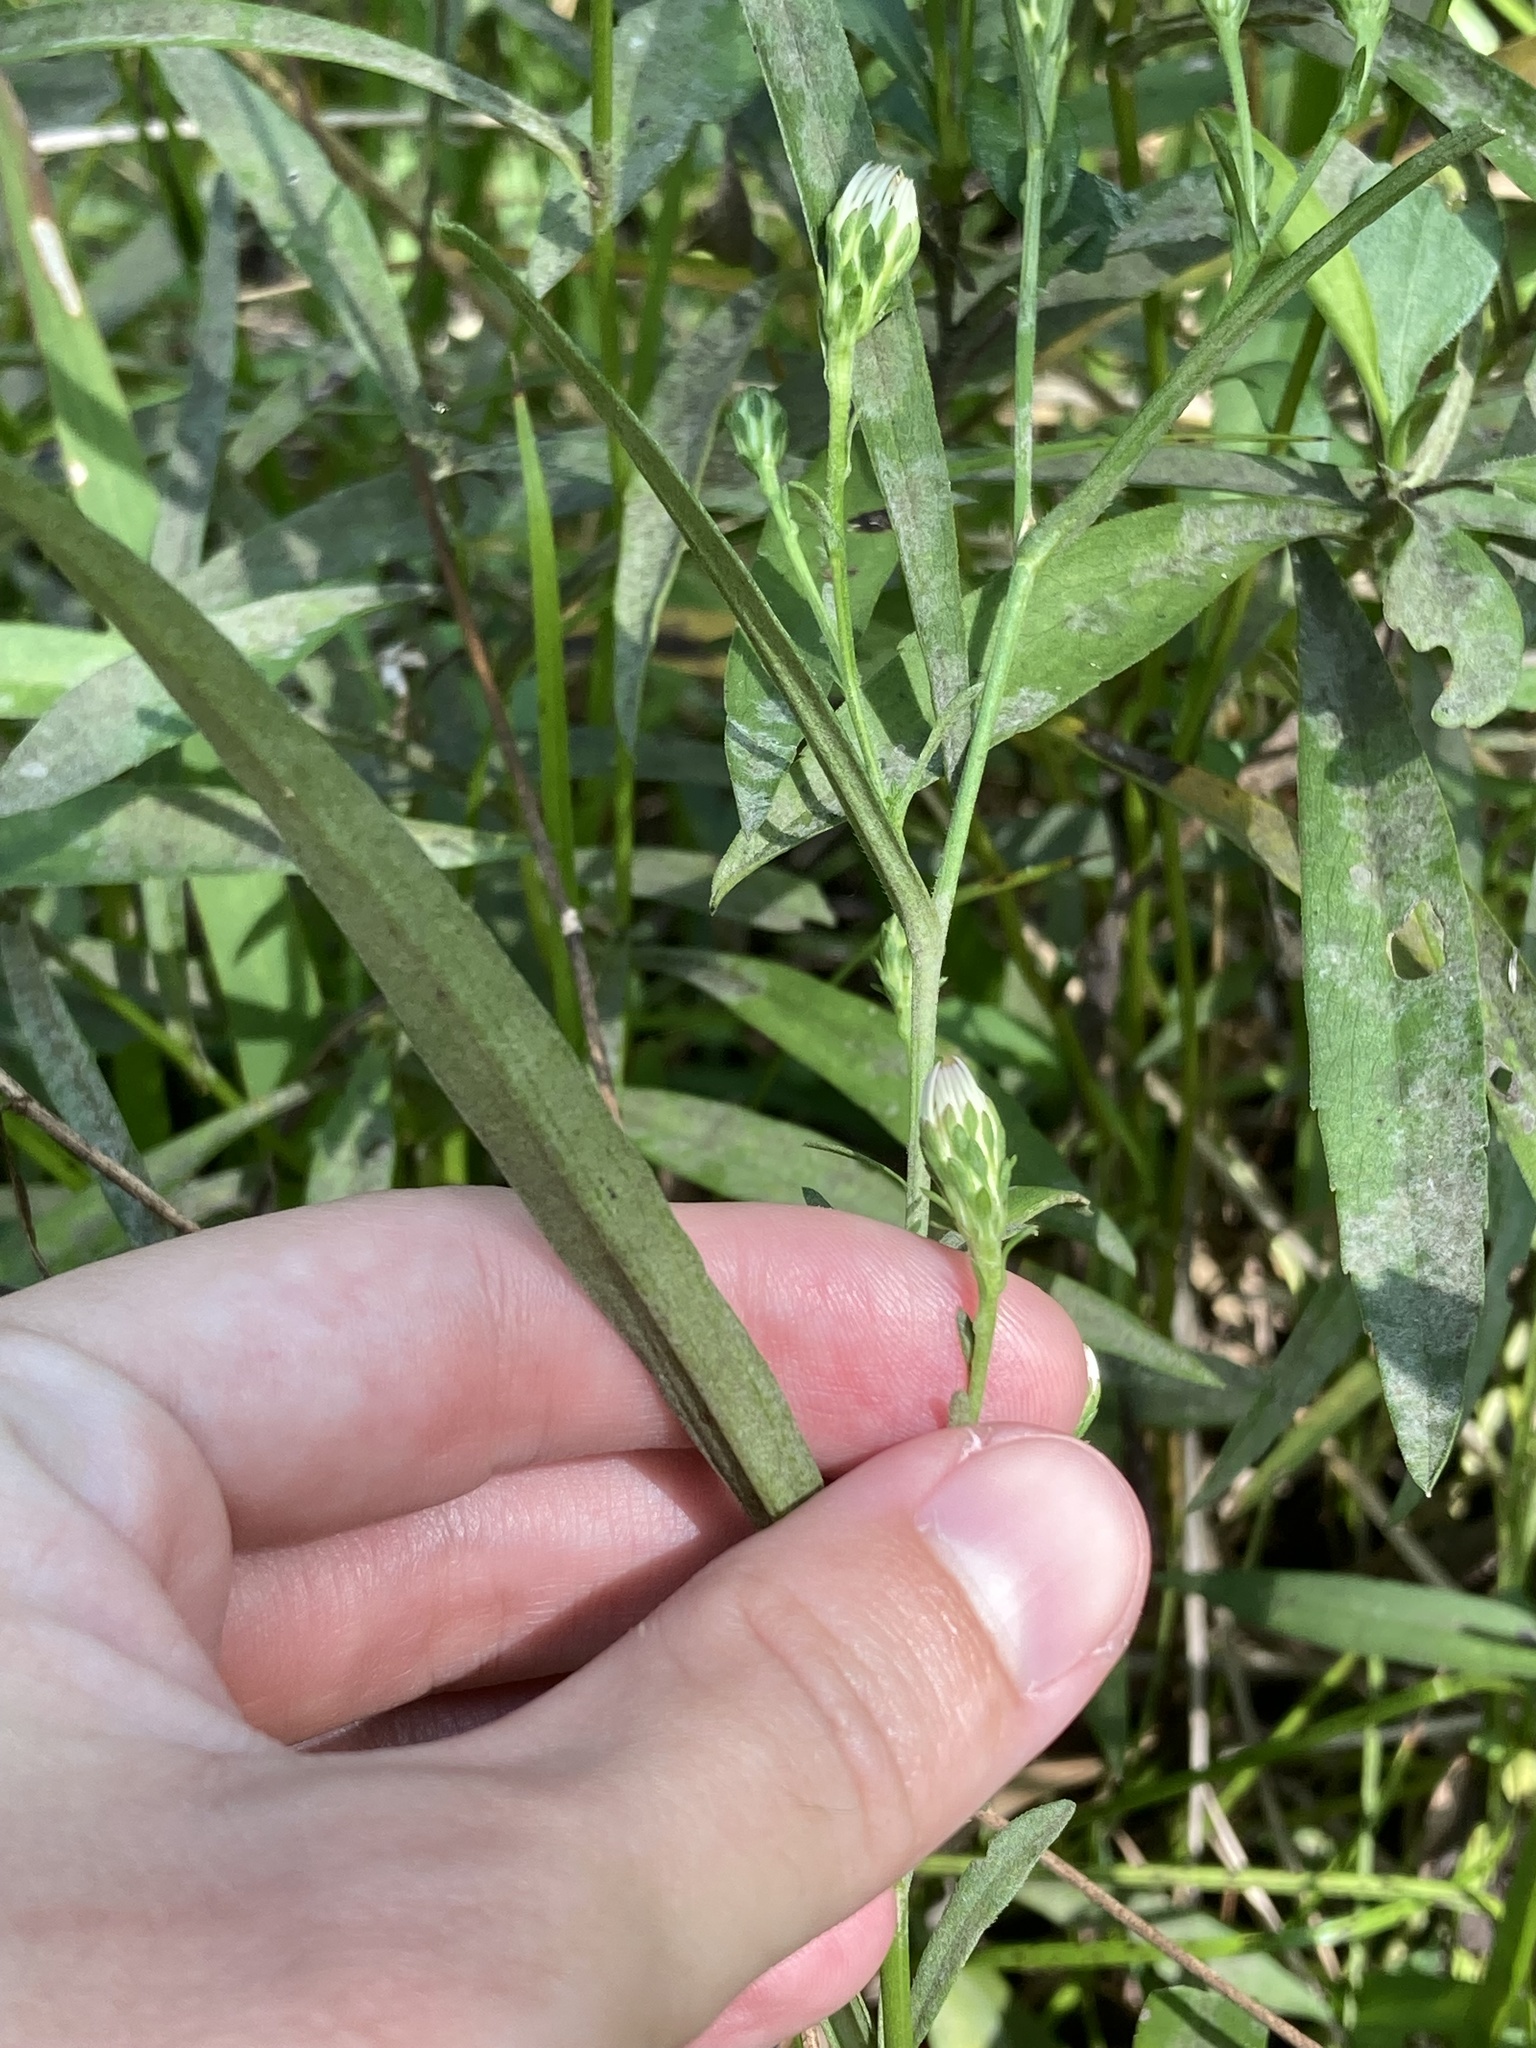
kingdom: Plantae
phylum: Tracheophyta
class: Magnoliopsida
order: Asterales
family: Asteraceae
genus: Symphyotrichum
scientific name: Symphyotrichum simmondsii
